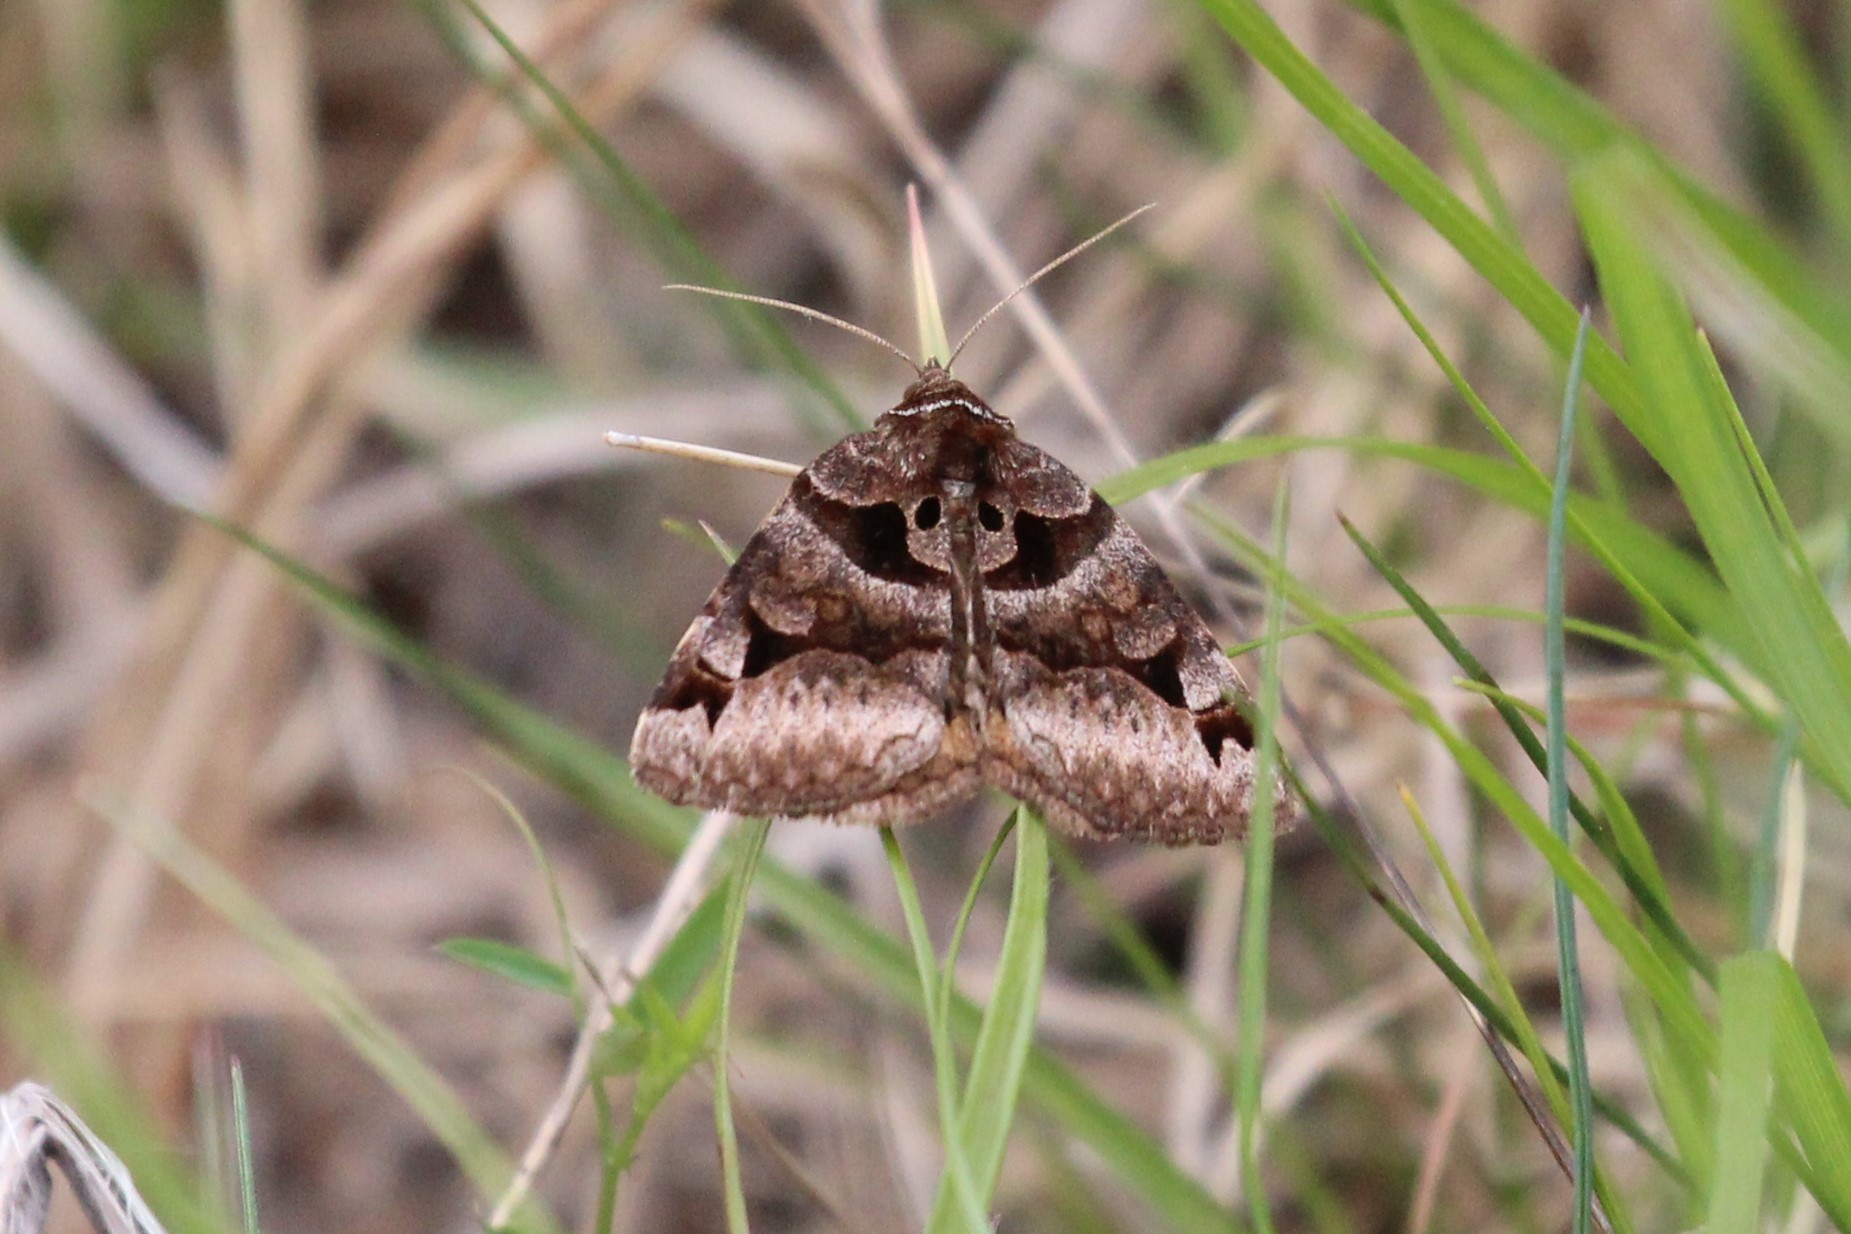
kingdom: Animalia
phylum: Arthropoda
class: Insecta
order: Lepidoptera
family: Erebidae
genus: Euclidia
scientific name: Euclidia cuspidea
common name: Toothed somberwing
